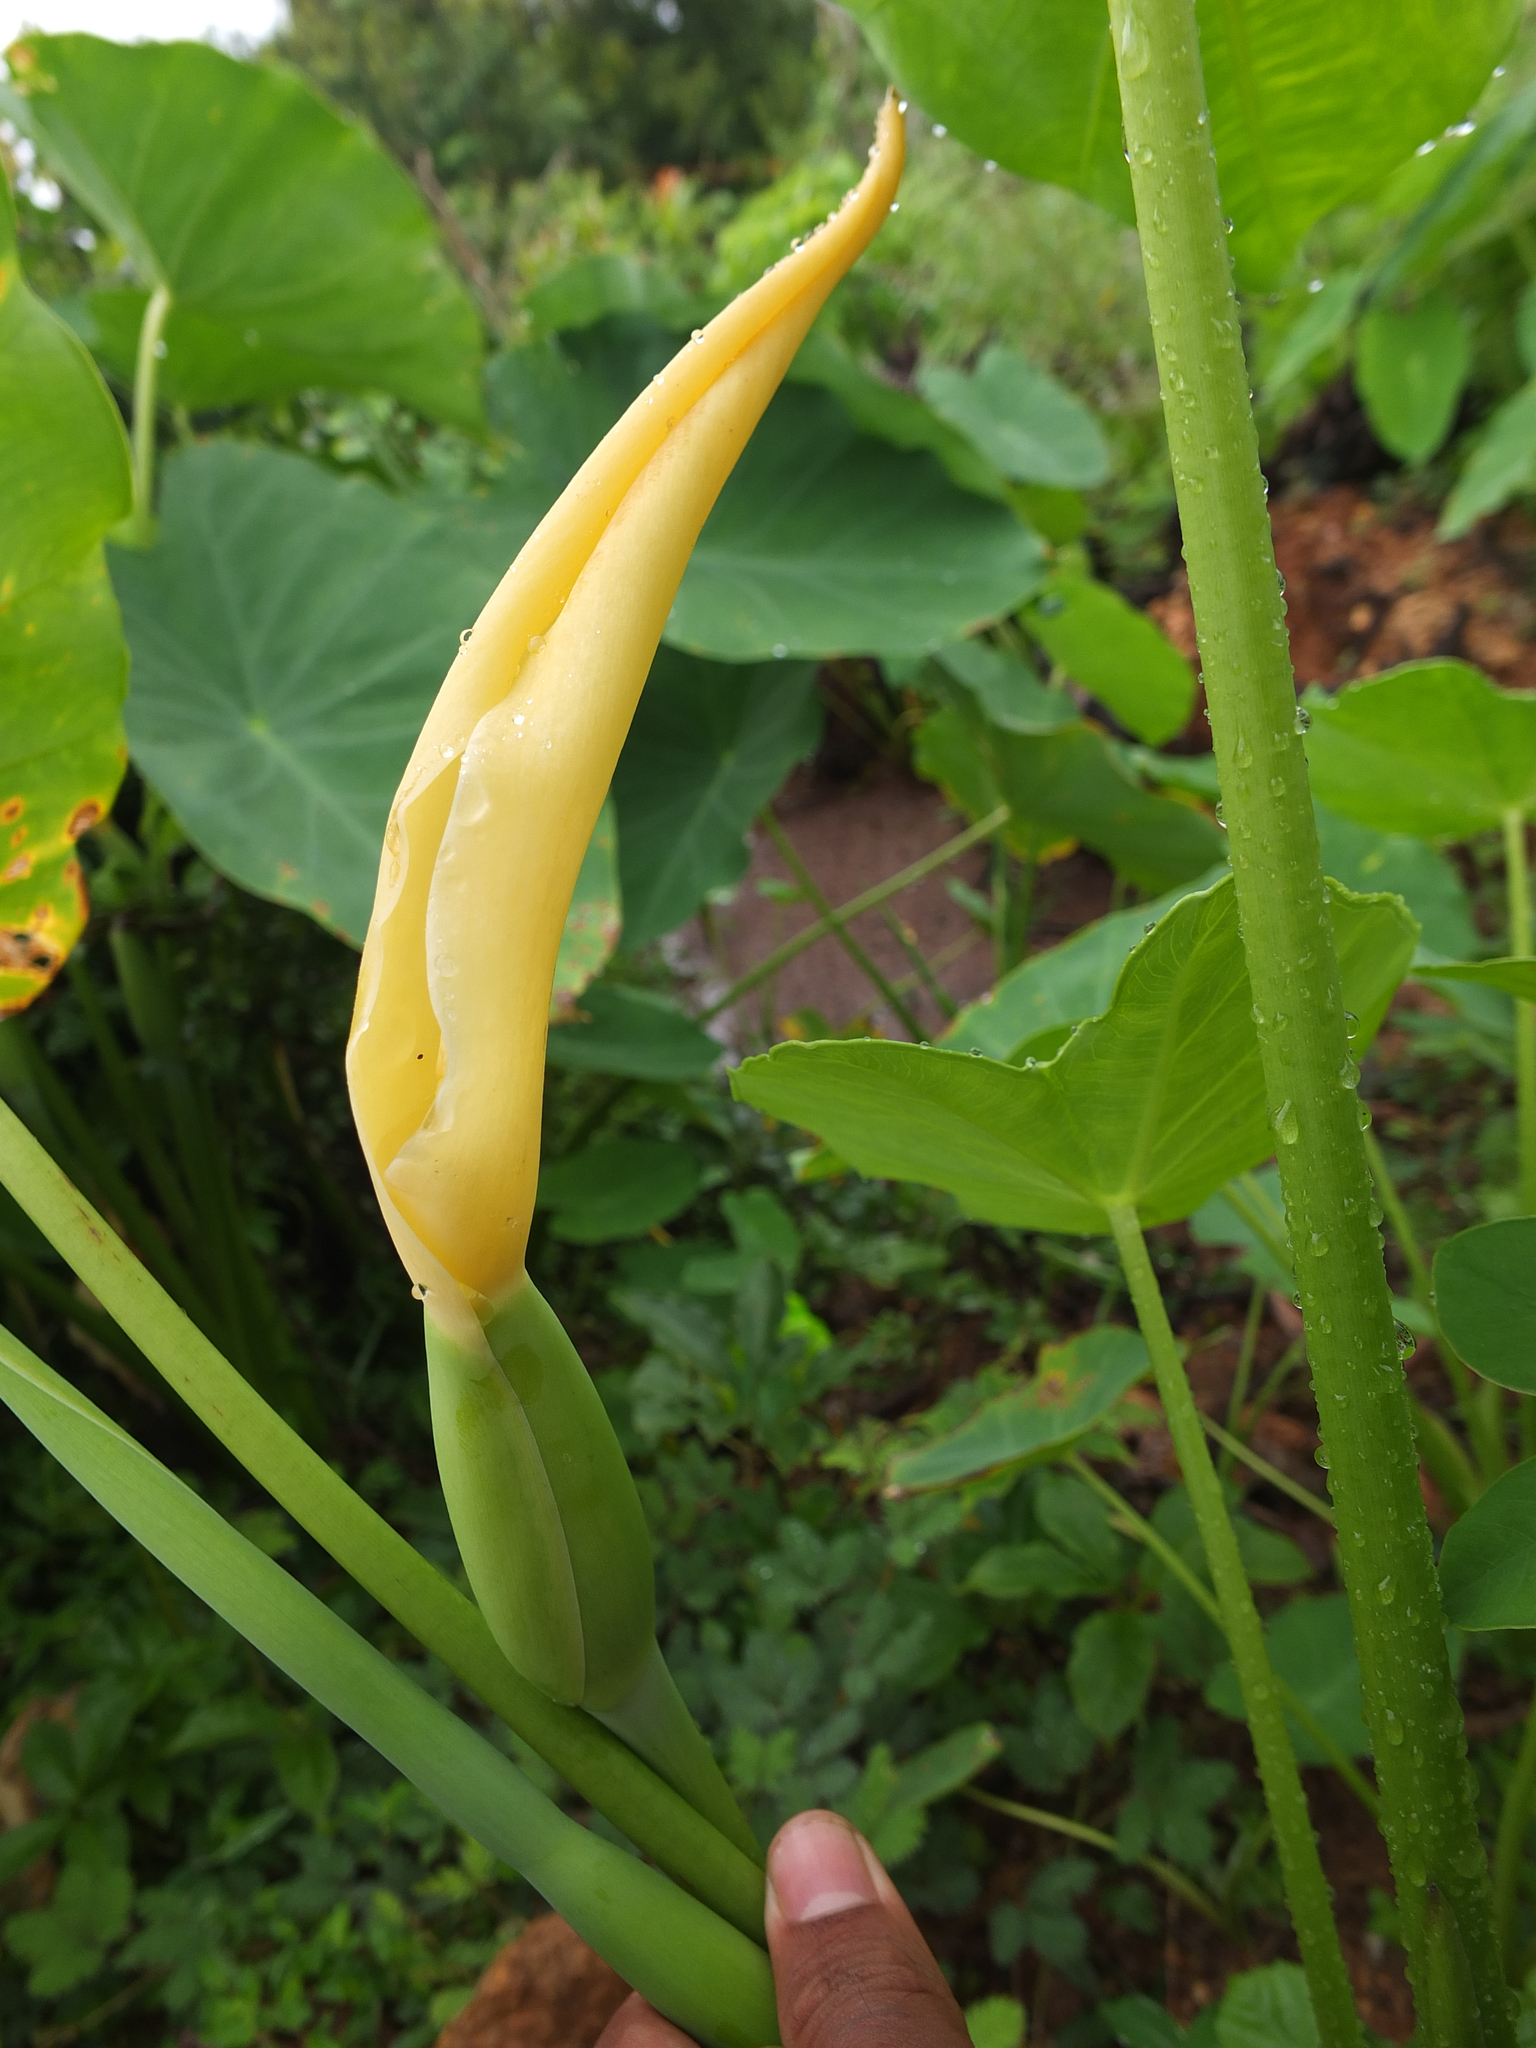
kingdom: Plantae
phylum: Tracheophyta
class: Liliopsida
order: Alismatales
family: Araceae
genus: Colocasia
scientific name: Colocasia esculenta
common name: Taro
